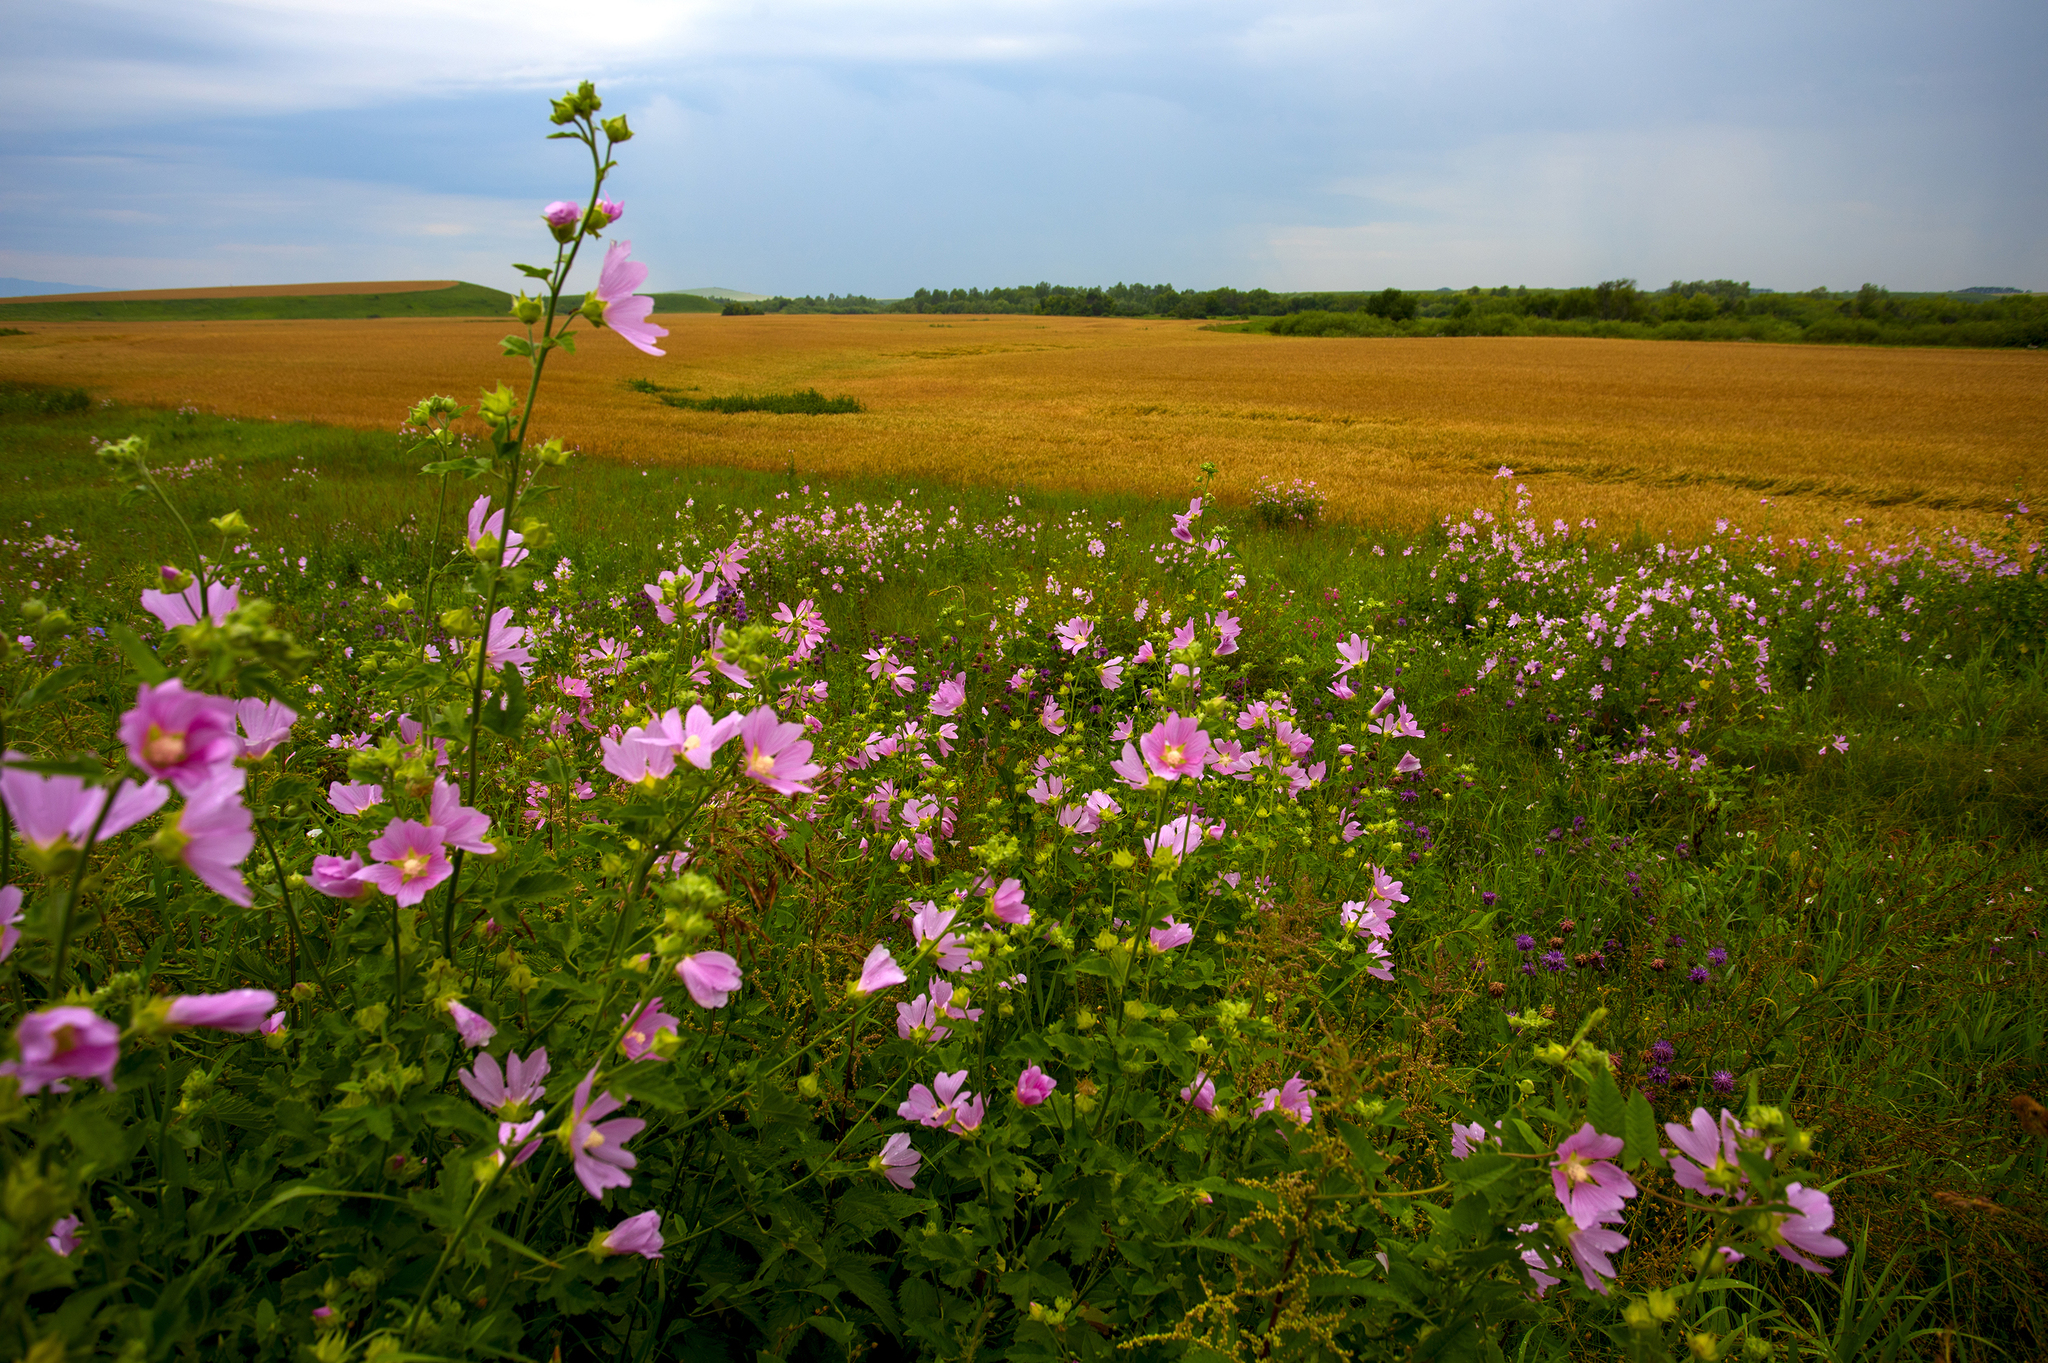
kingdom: Plantae
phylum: Tracheophyta
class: Magnoliopsida
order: Malvales
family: Malvaceae
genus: Malva
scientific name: Malva thuringiaca
